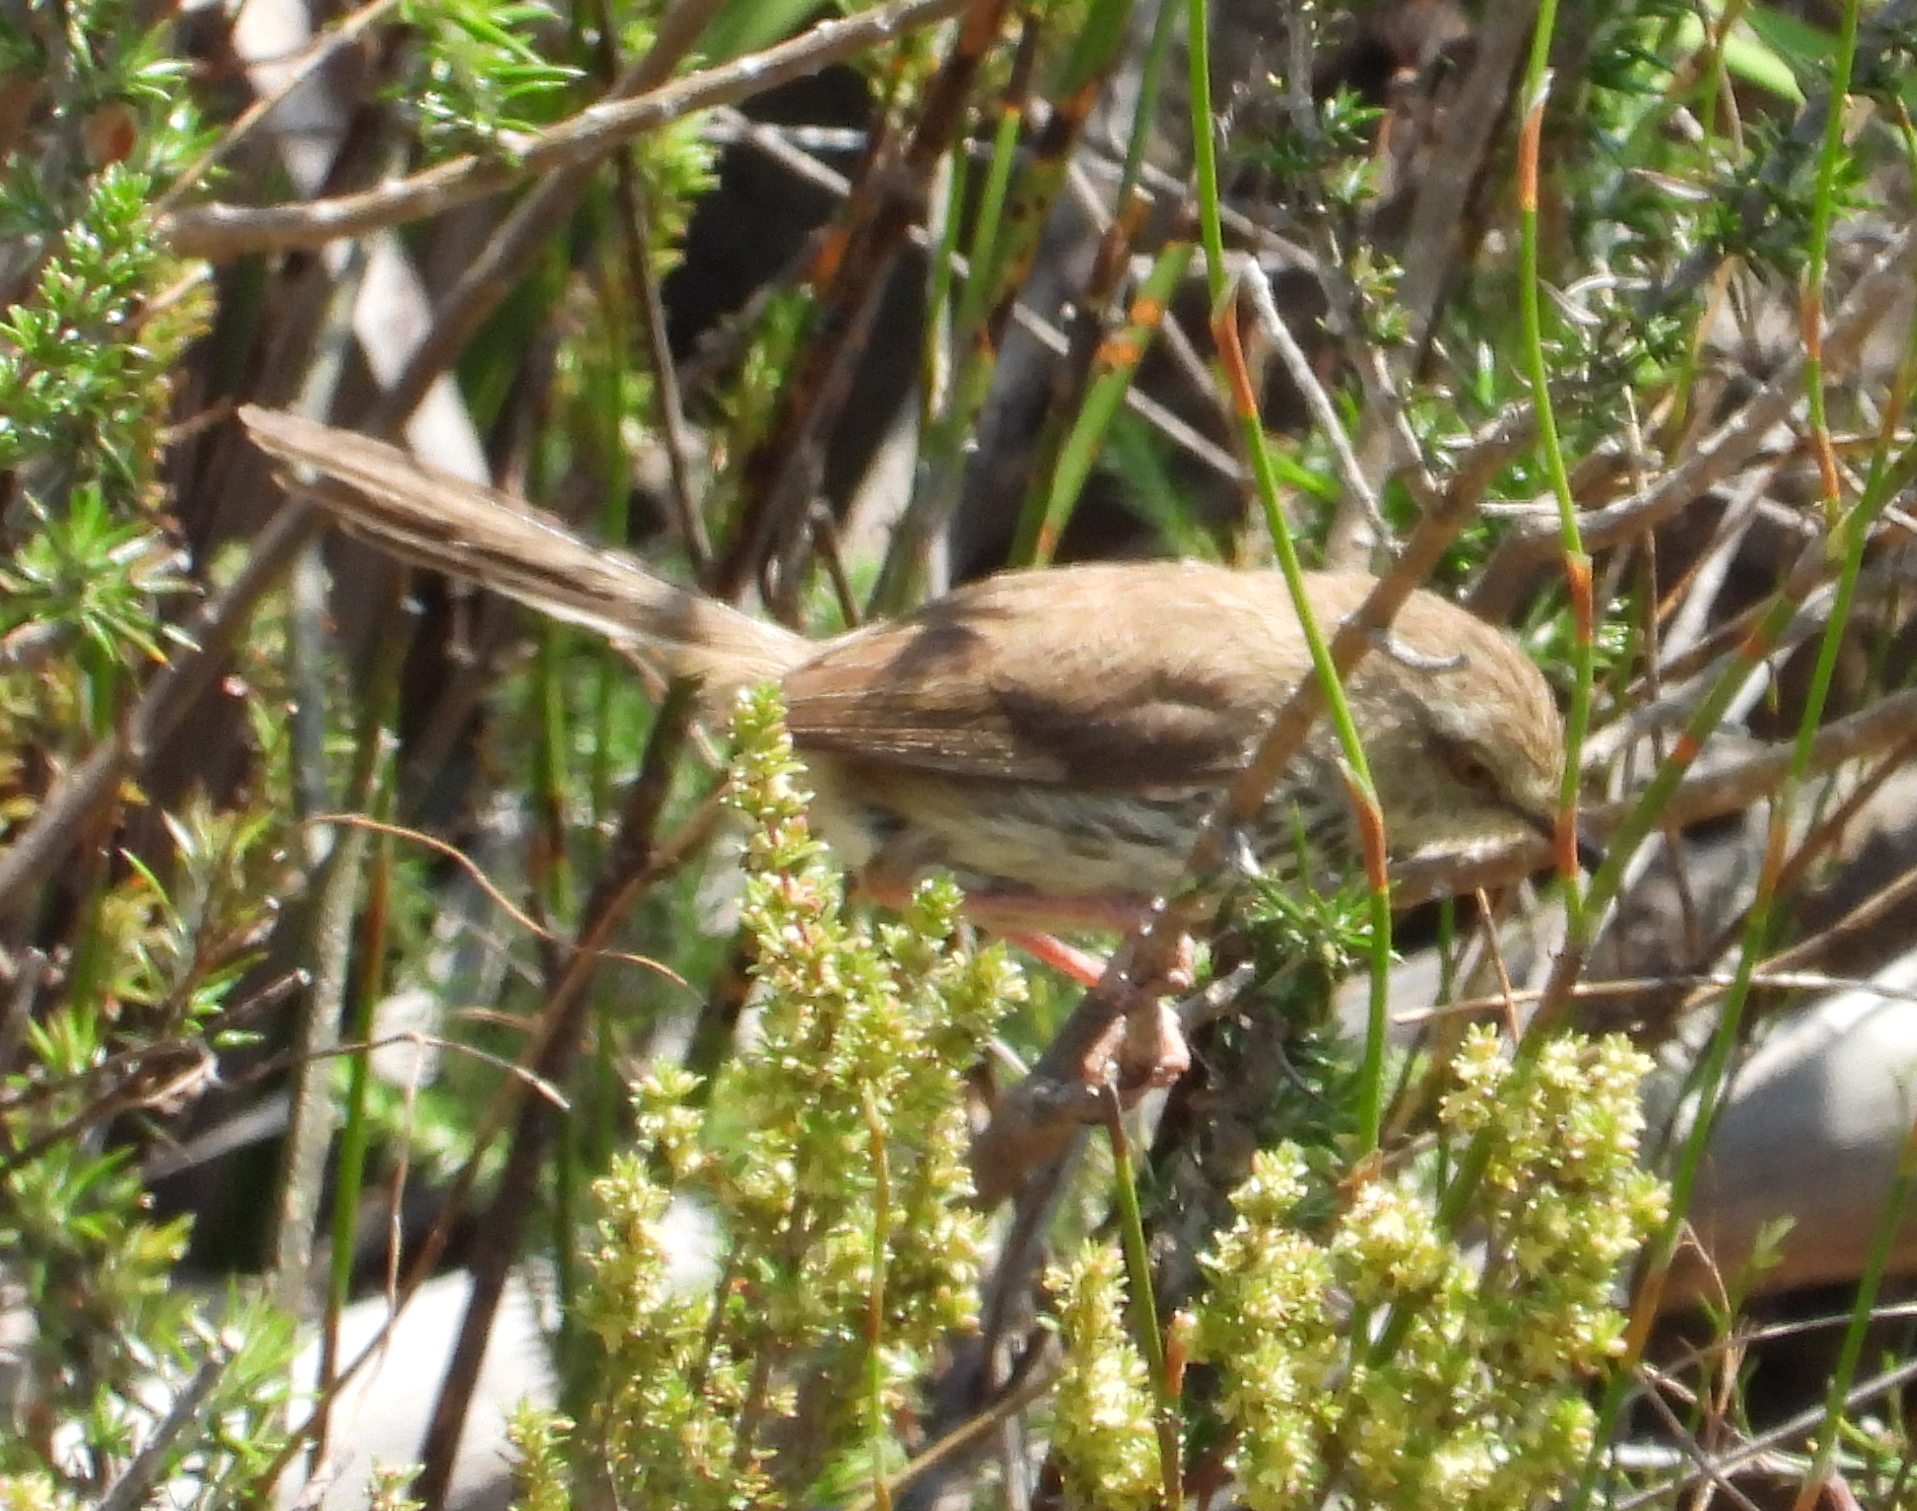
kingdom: Animalia
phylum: Chordata
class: Aves
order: Passeriformes
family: Cisticolidae
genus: Prinia
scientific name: Prinia maculosa
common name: Karoo prinia
